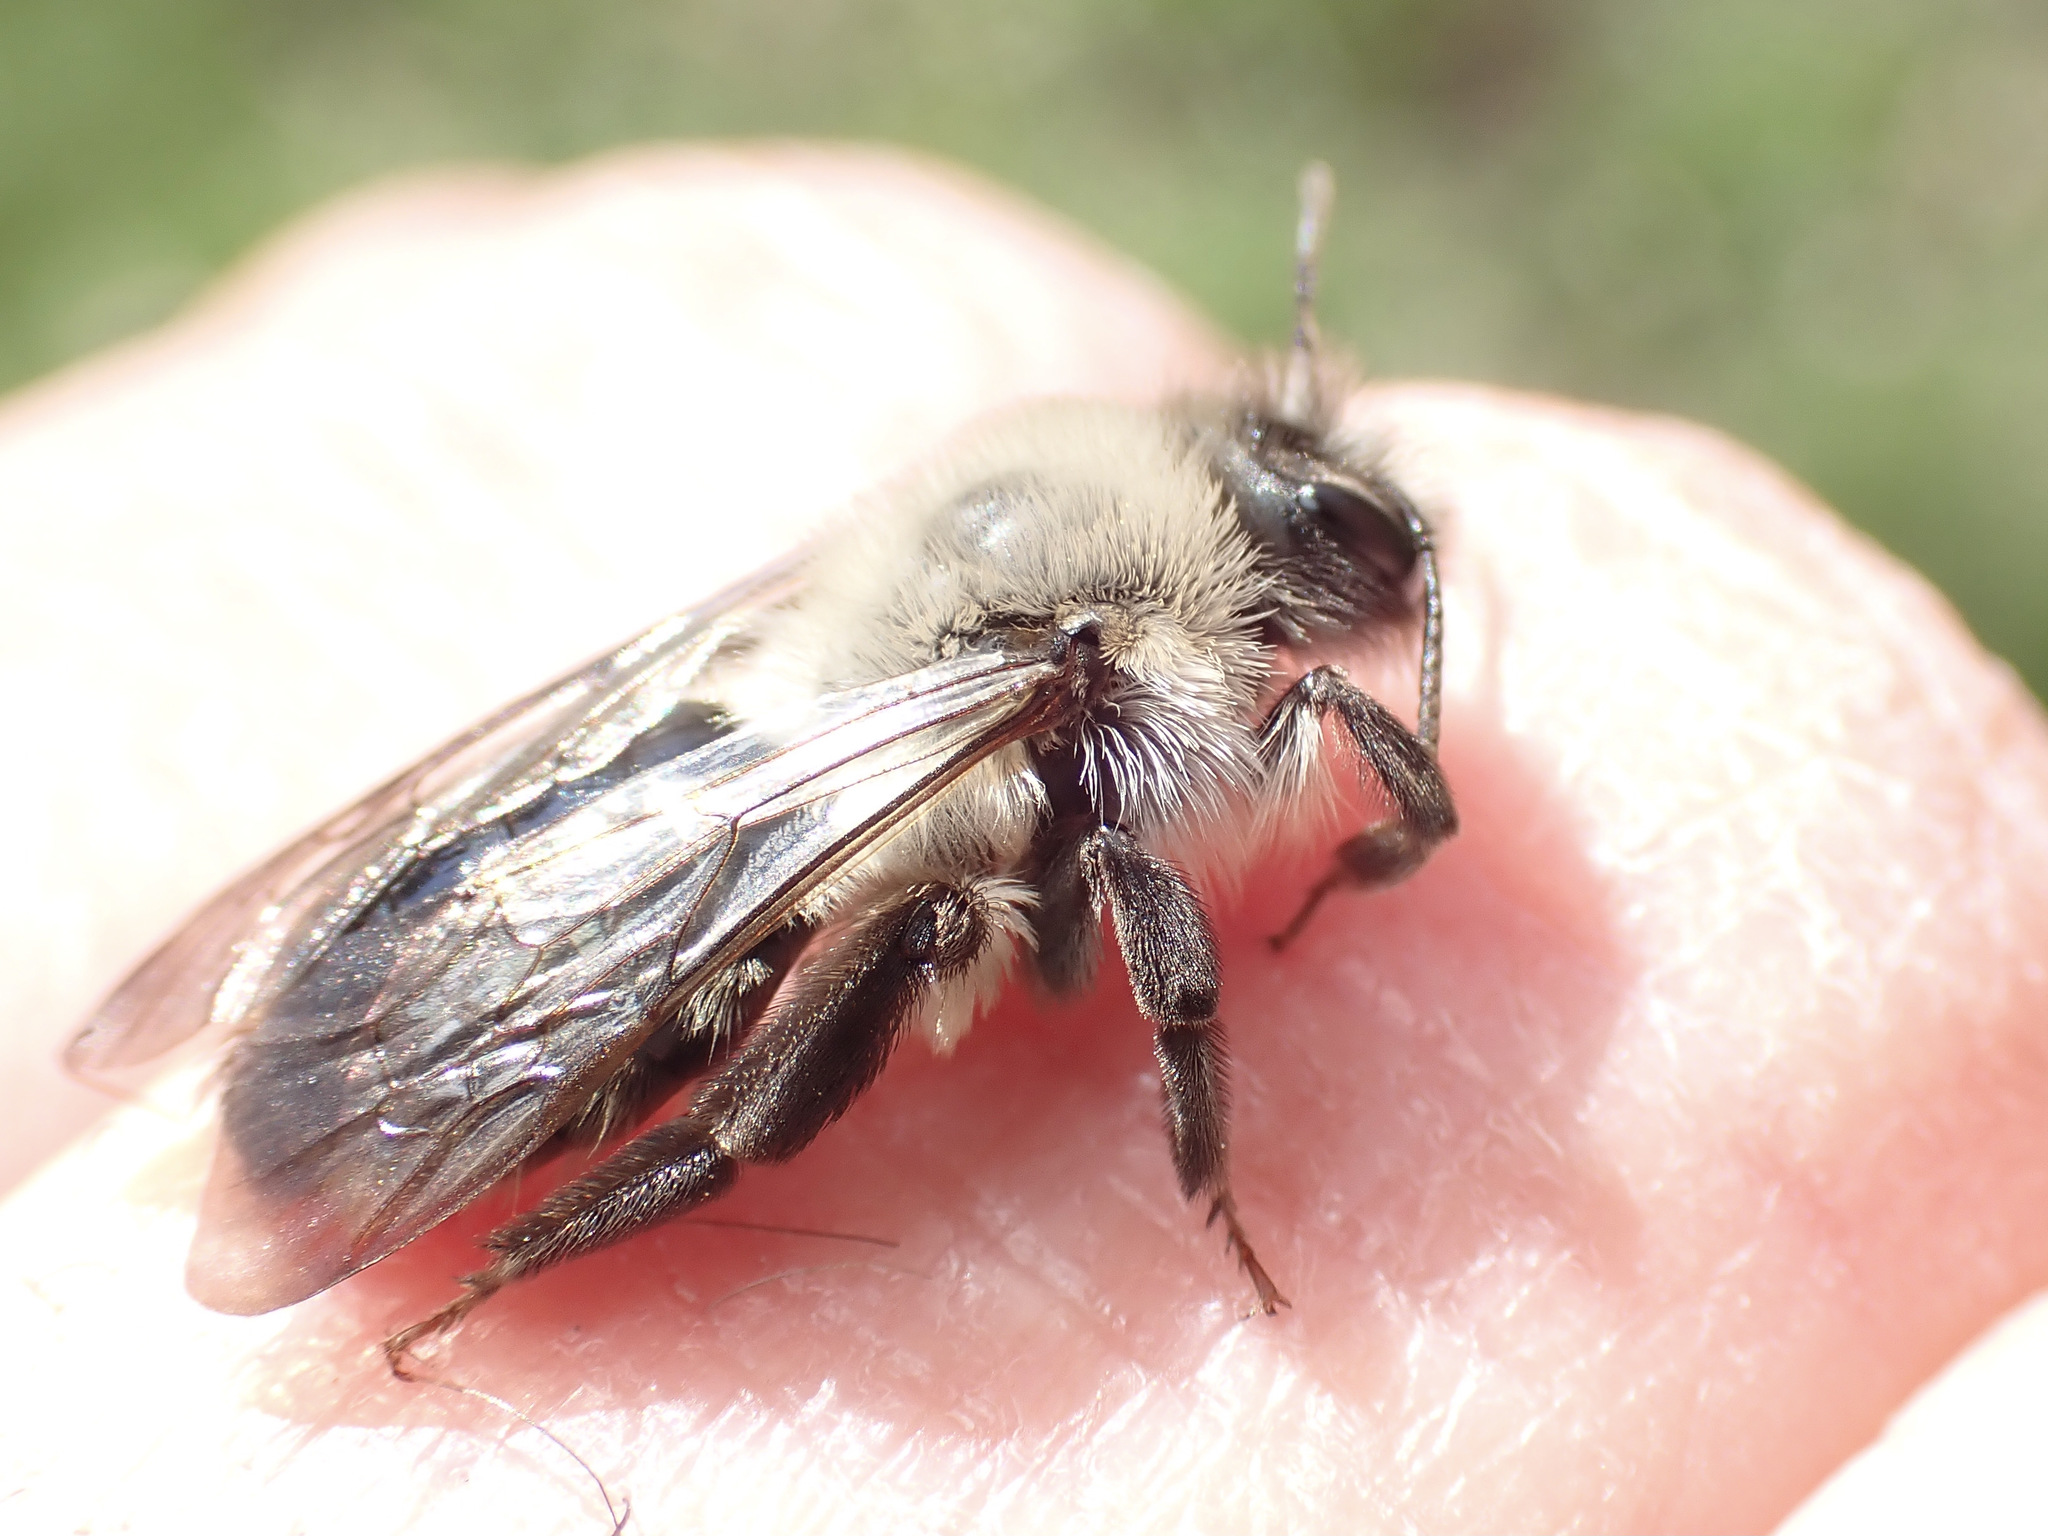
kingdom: Animalia
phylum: Arthropoda
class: Insecta
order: Hymenoptera
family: Andrenidae
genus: Andrena
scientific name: Andrena vaga
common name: Grey-backed mining bee
